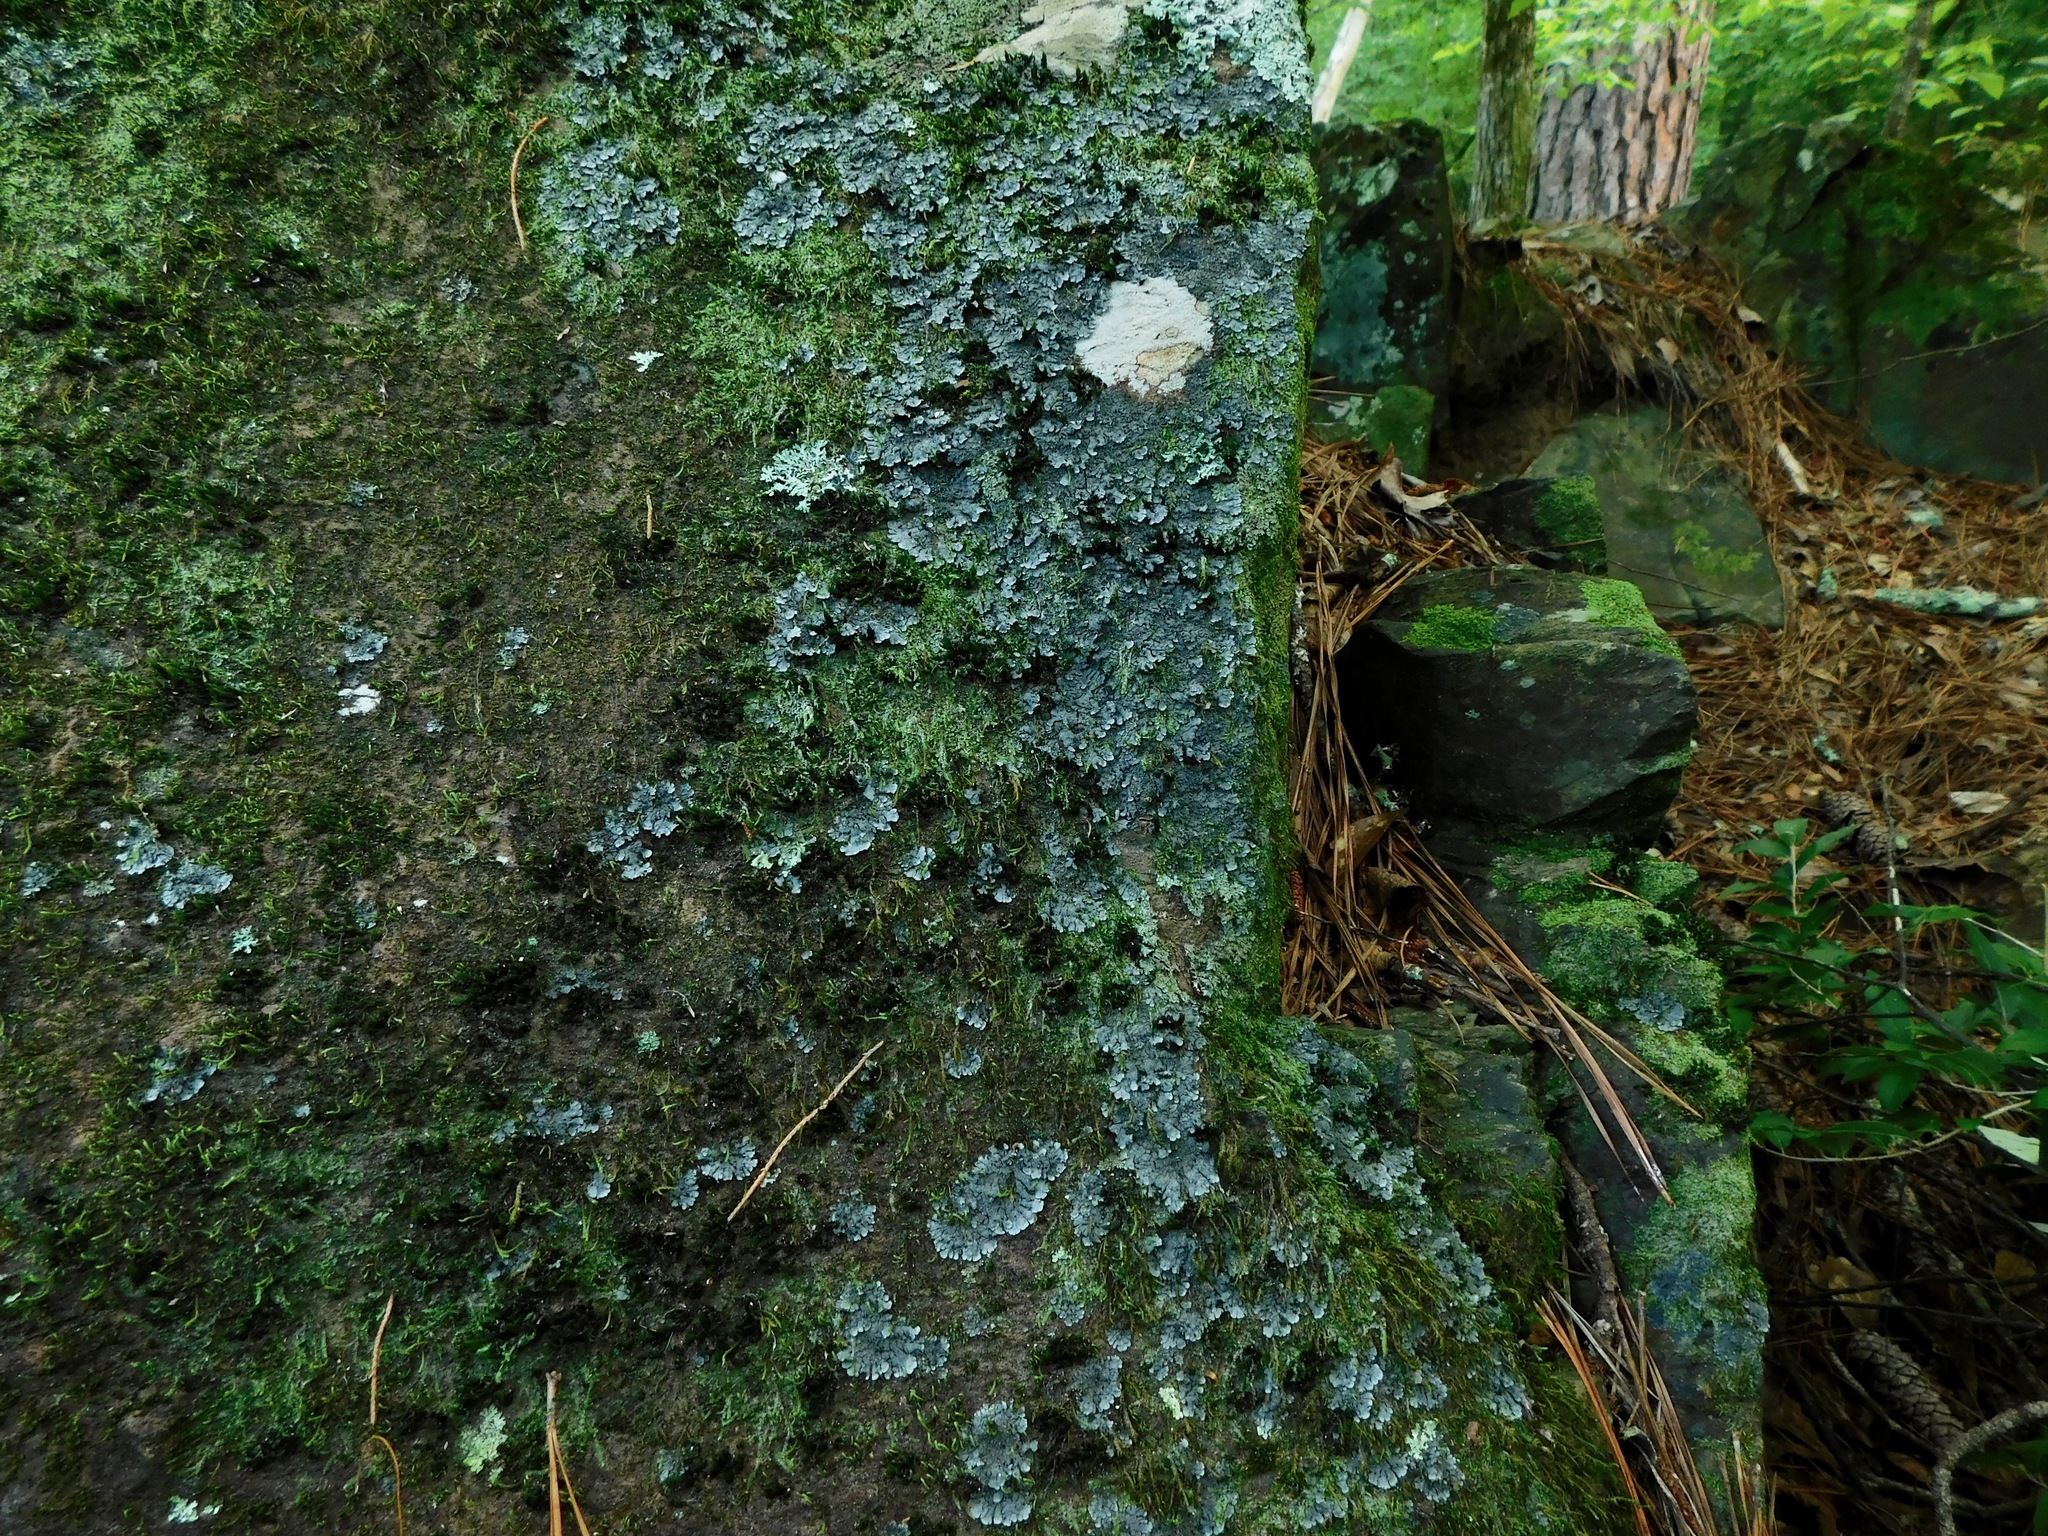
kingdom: Fungi
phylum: Ascomycota
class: Lecanoromycetes
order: Peltigerales
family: Coccocarpiaceae
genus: Coccocarpia
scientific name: Coccocarpia palmicola
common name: Salted shell lichen
